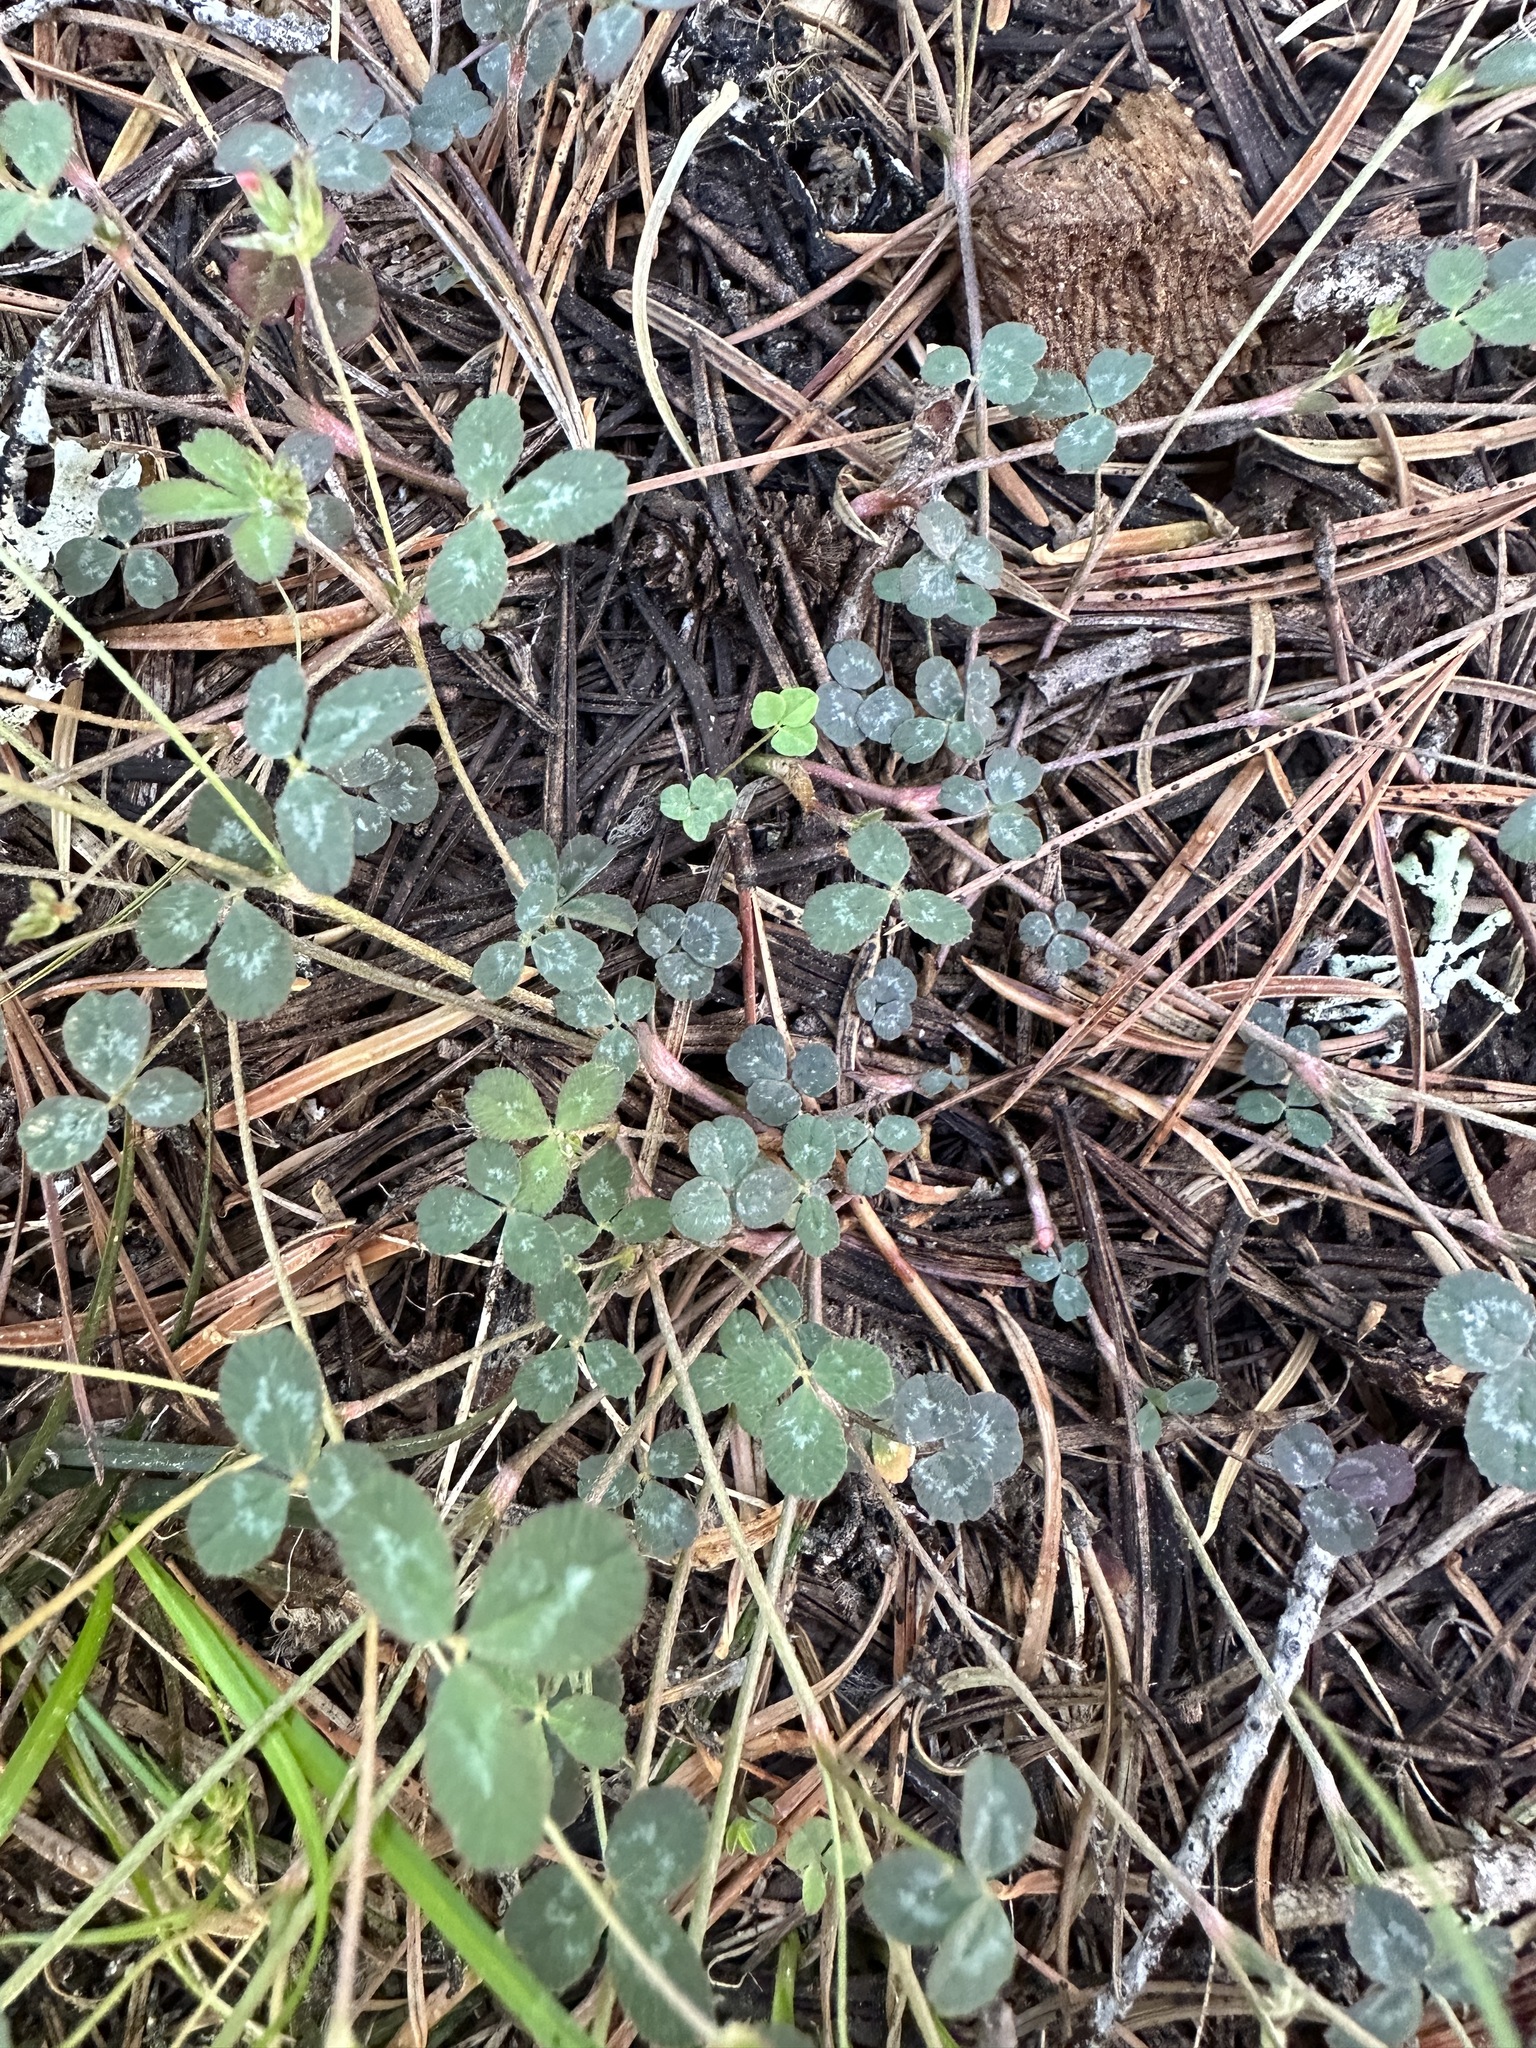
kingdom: Plantae
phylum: Tracheophyta
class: Magnoliopsida
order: Fabales
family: Fabaceae
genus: Trifolium
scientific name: Trifolium breweri
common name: Forest clover
